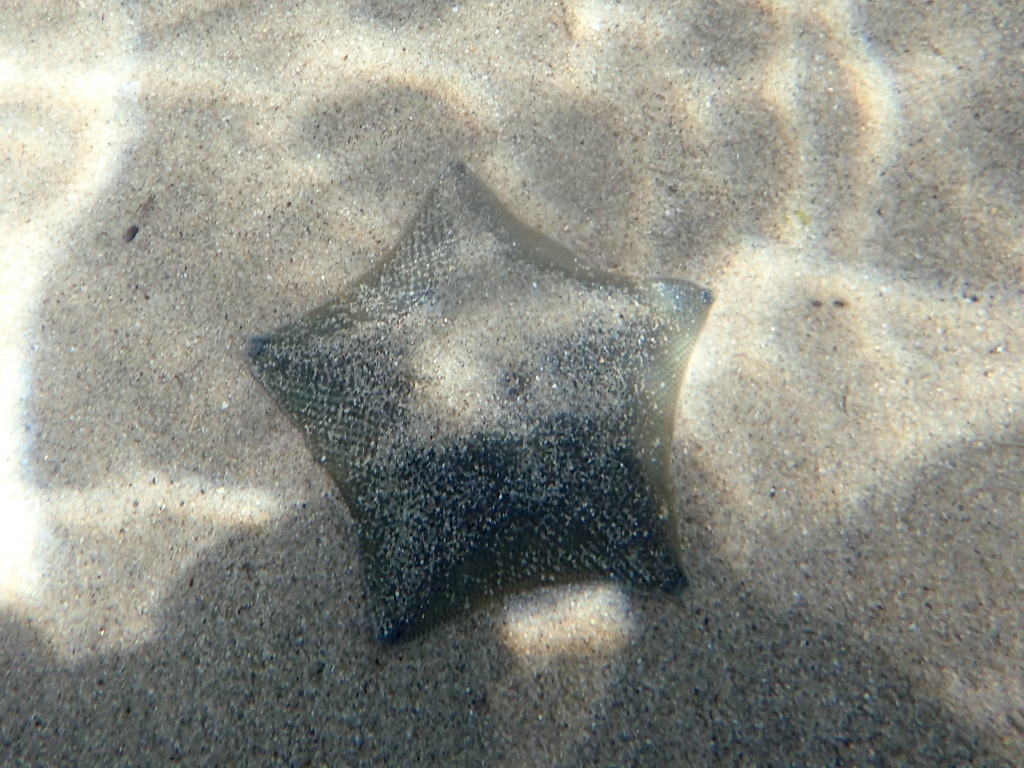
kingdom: Animalia
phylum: Echinodermata
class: Asteroidea
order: Valvatida
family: Asterinidae
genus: Patiriella
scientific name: Patiriella regularis
